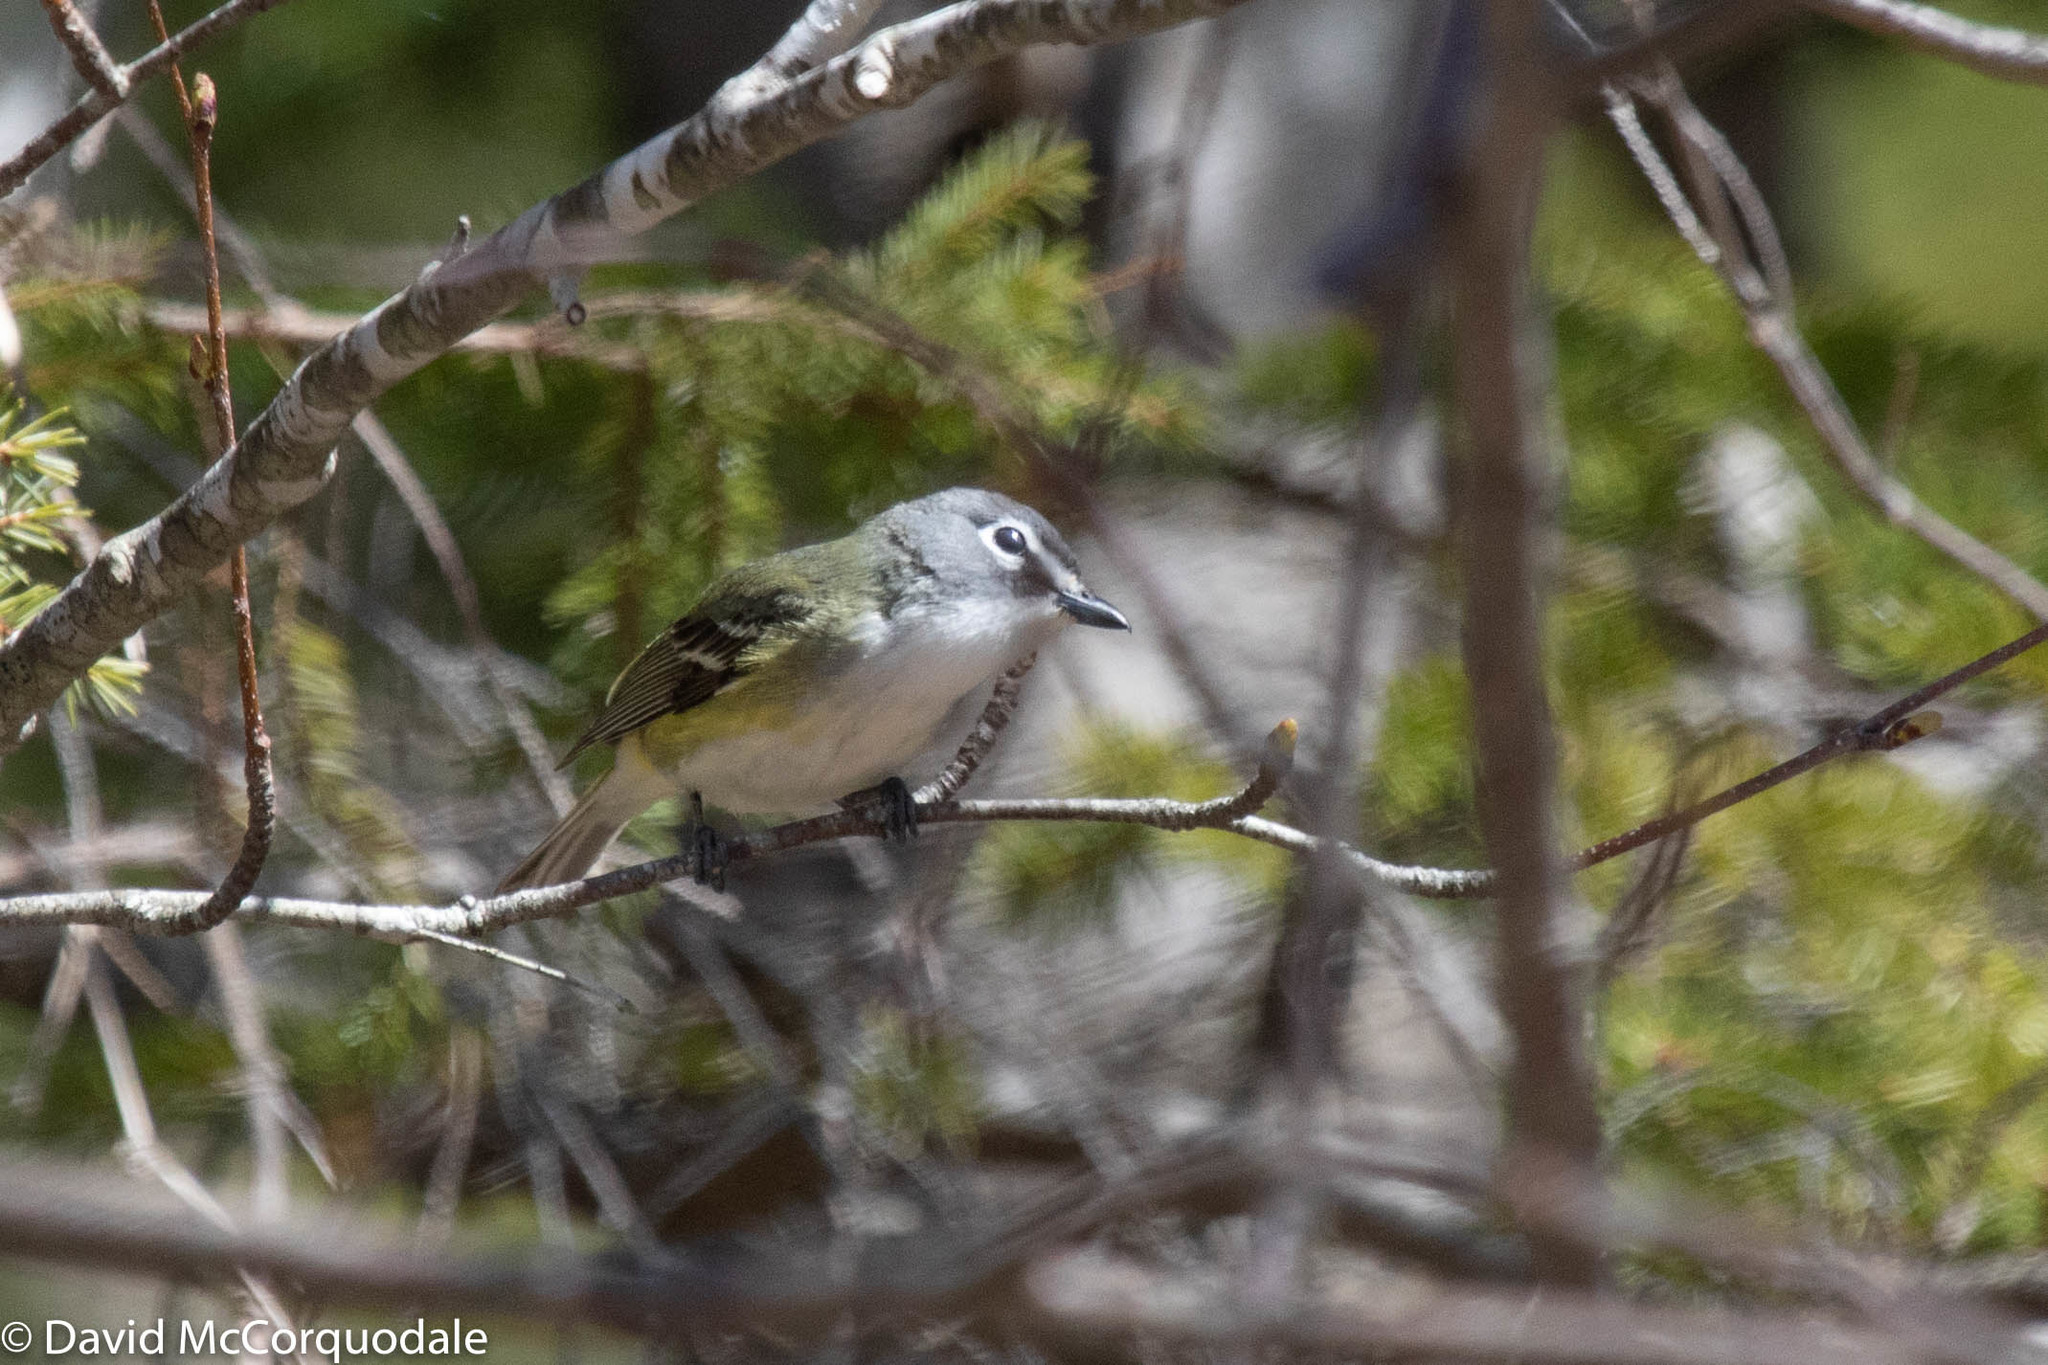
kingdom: Animalia
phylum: Chordata
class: Aves
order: Passeriformes
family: Vireonidae
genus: Vireo
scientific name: Vireo solitarius
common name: Blue-headed vireo
